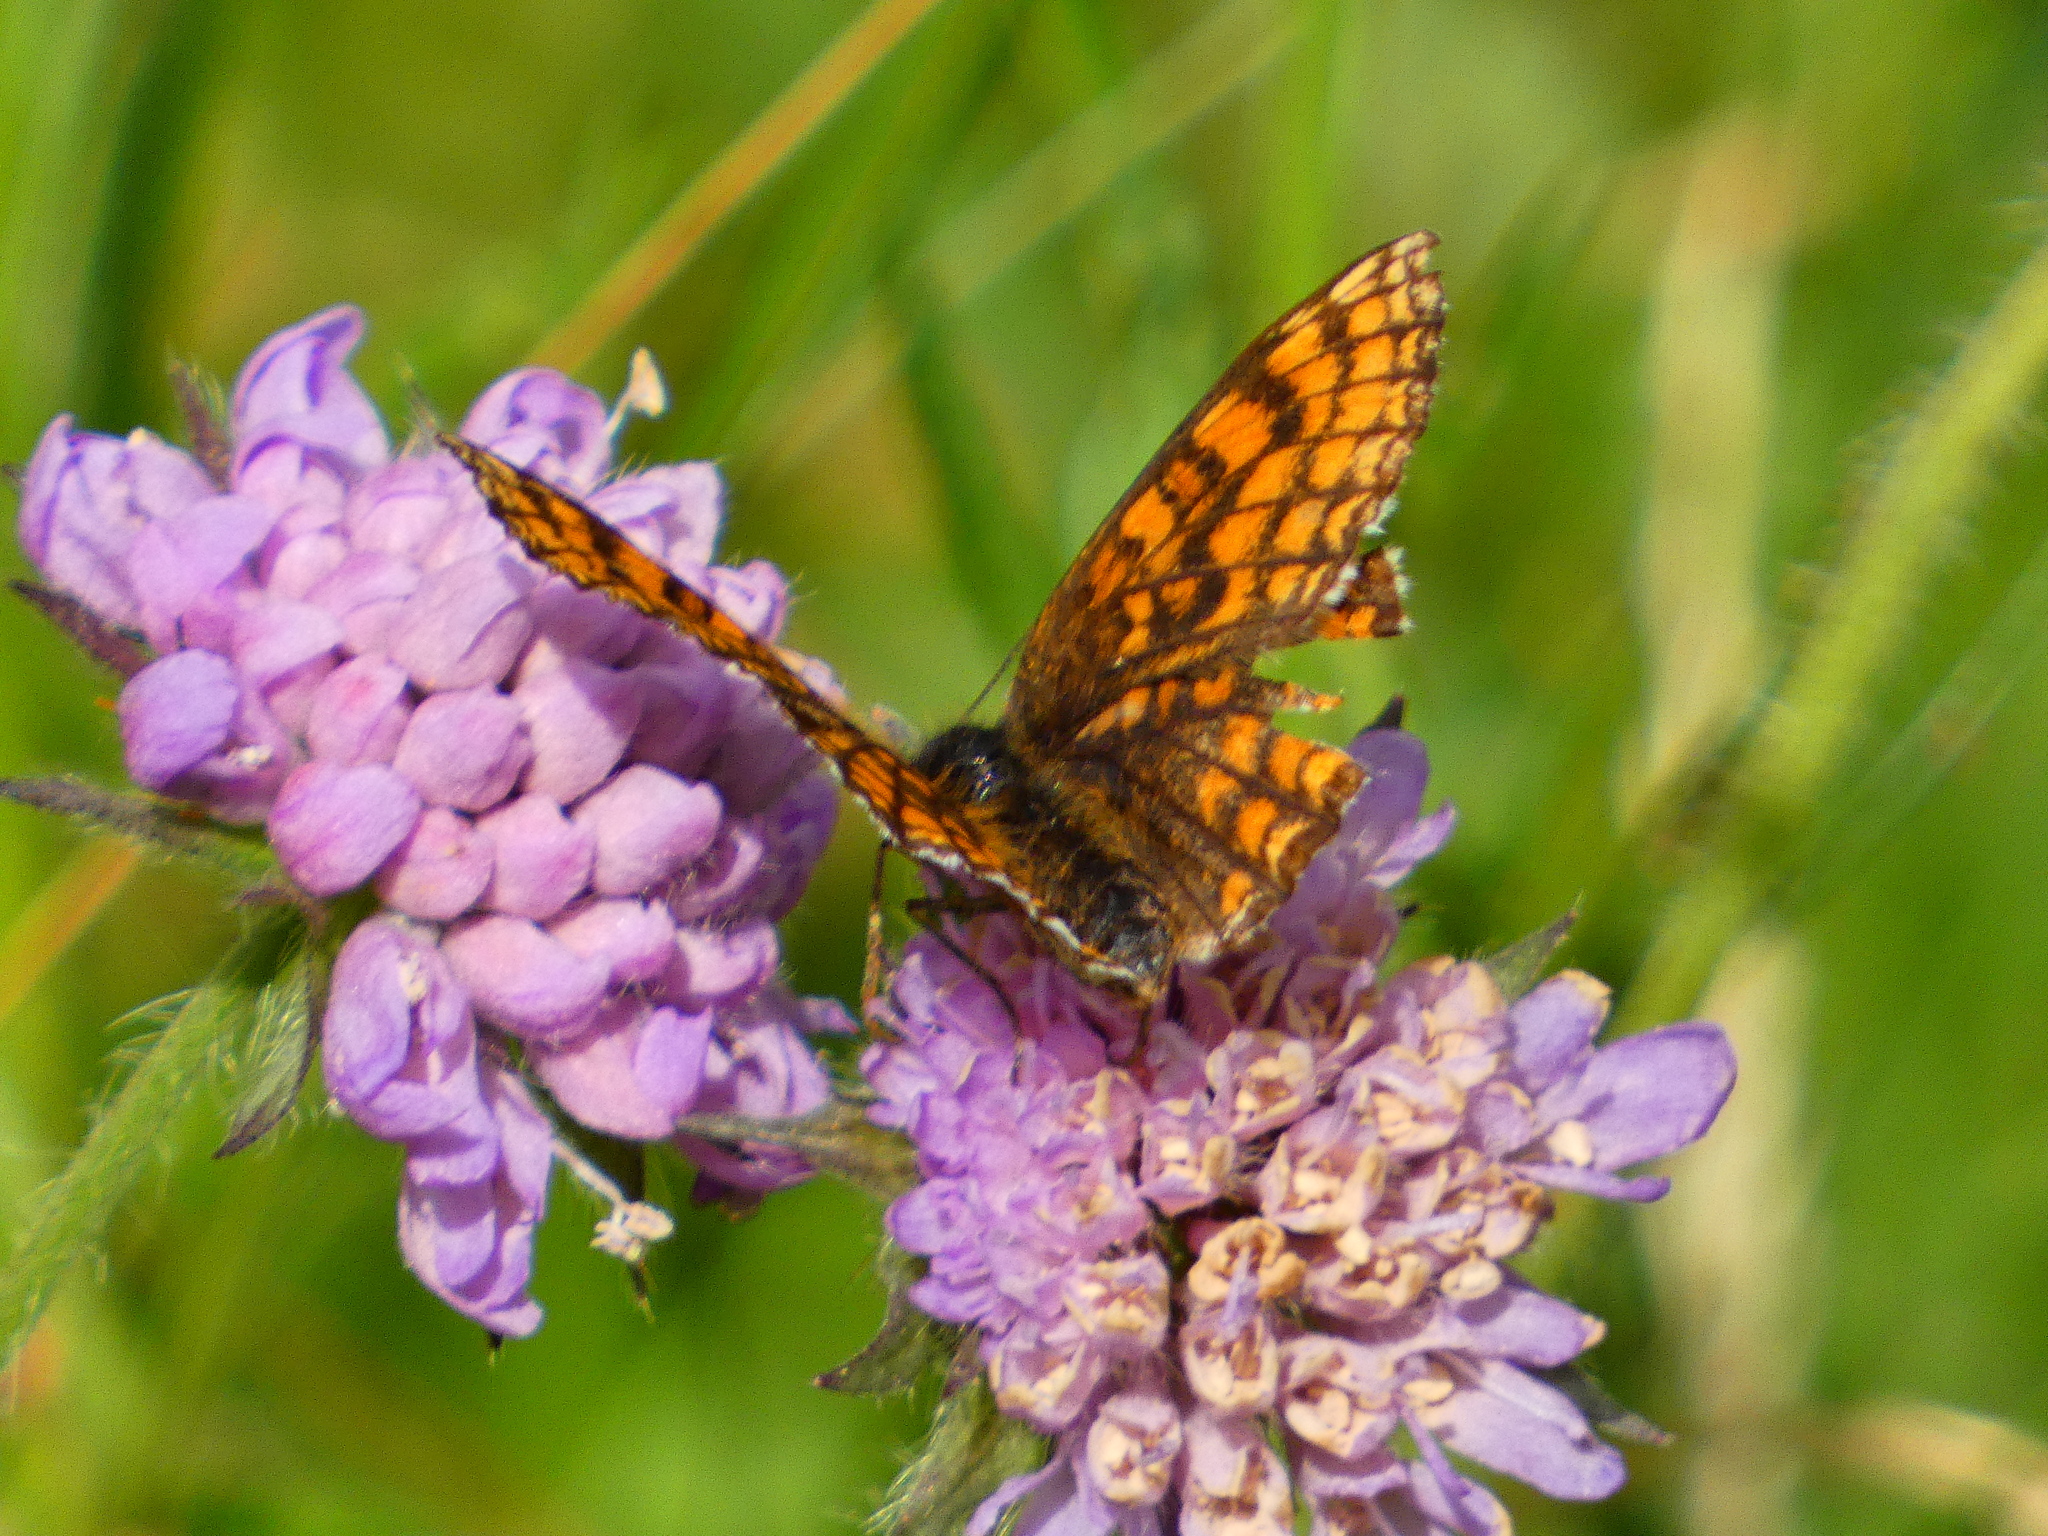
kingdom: Animalia
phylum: Arthropoda
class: Insecta
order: Lepidoptera
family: Nymphalidae
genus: Melitaea
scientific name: Melitaea athalia
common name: Heath fritillary
